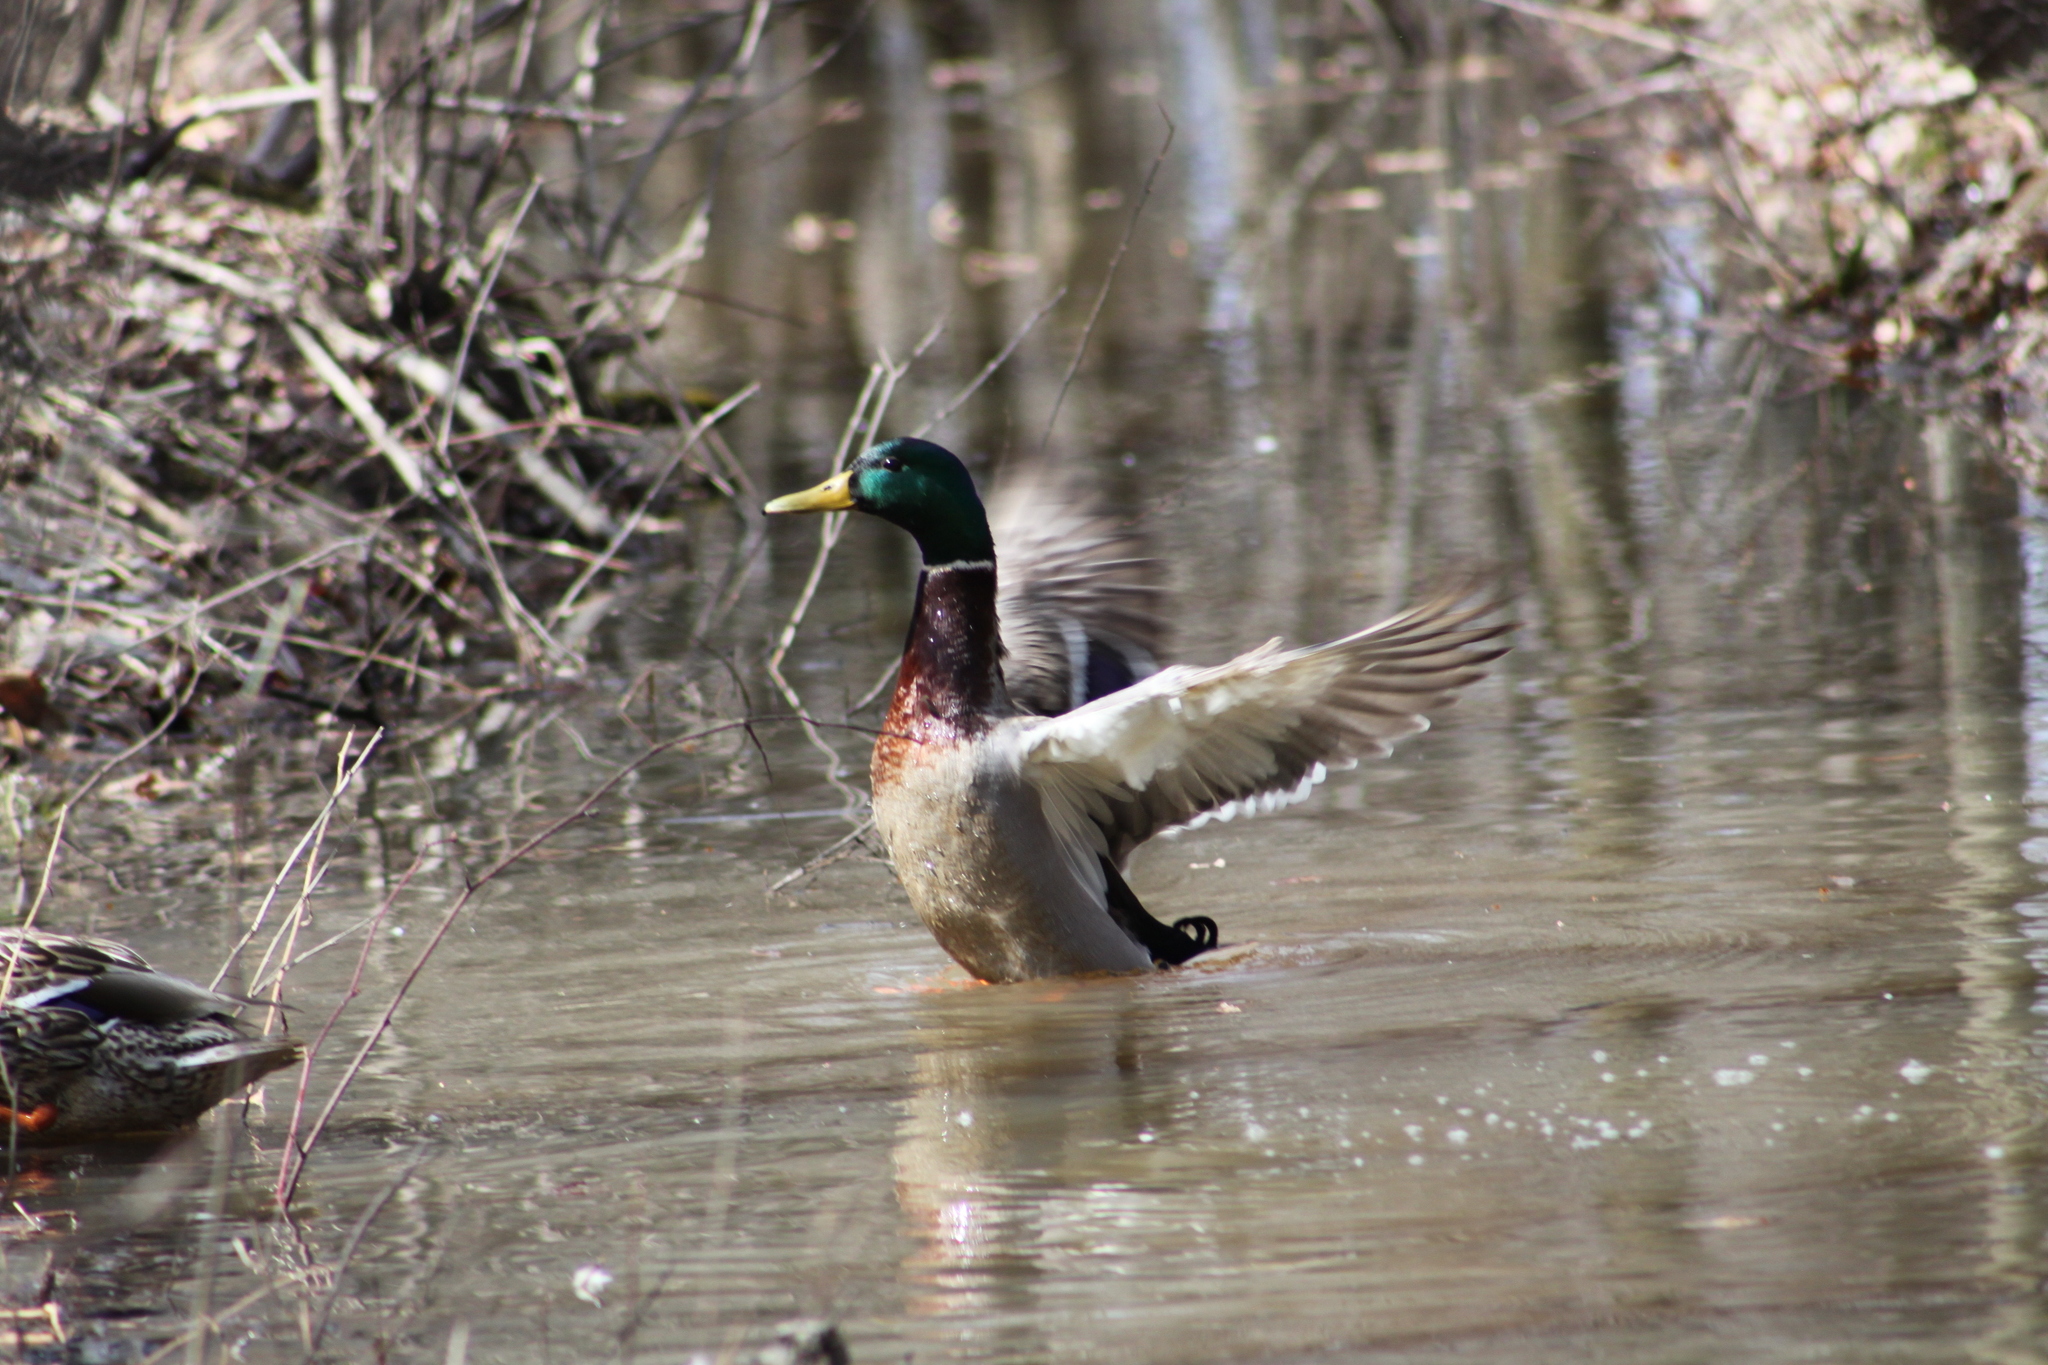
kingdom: Animalia
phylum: Chordata
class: Aves
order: Anseriformes
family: Anatidae
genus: Anas
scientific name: Anas platyrhynchos
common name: Mallard
